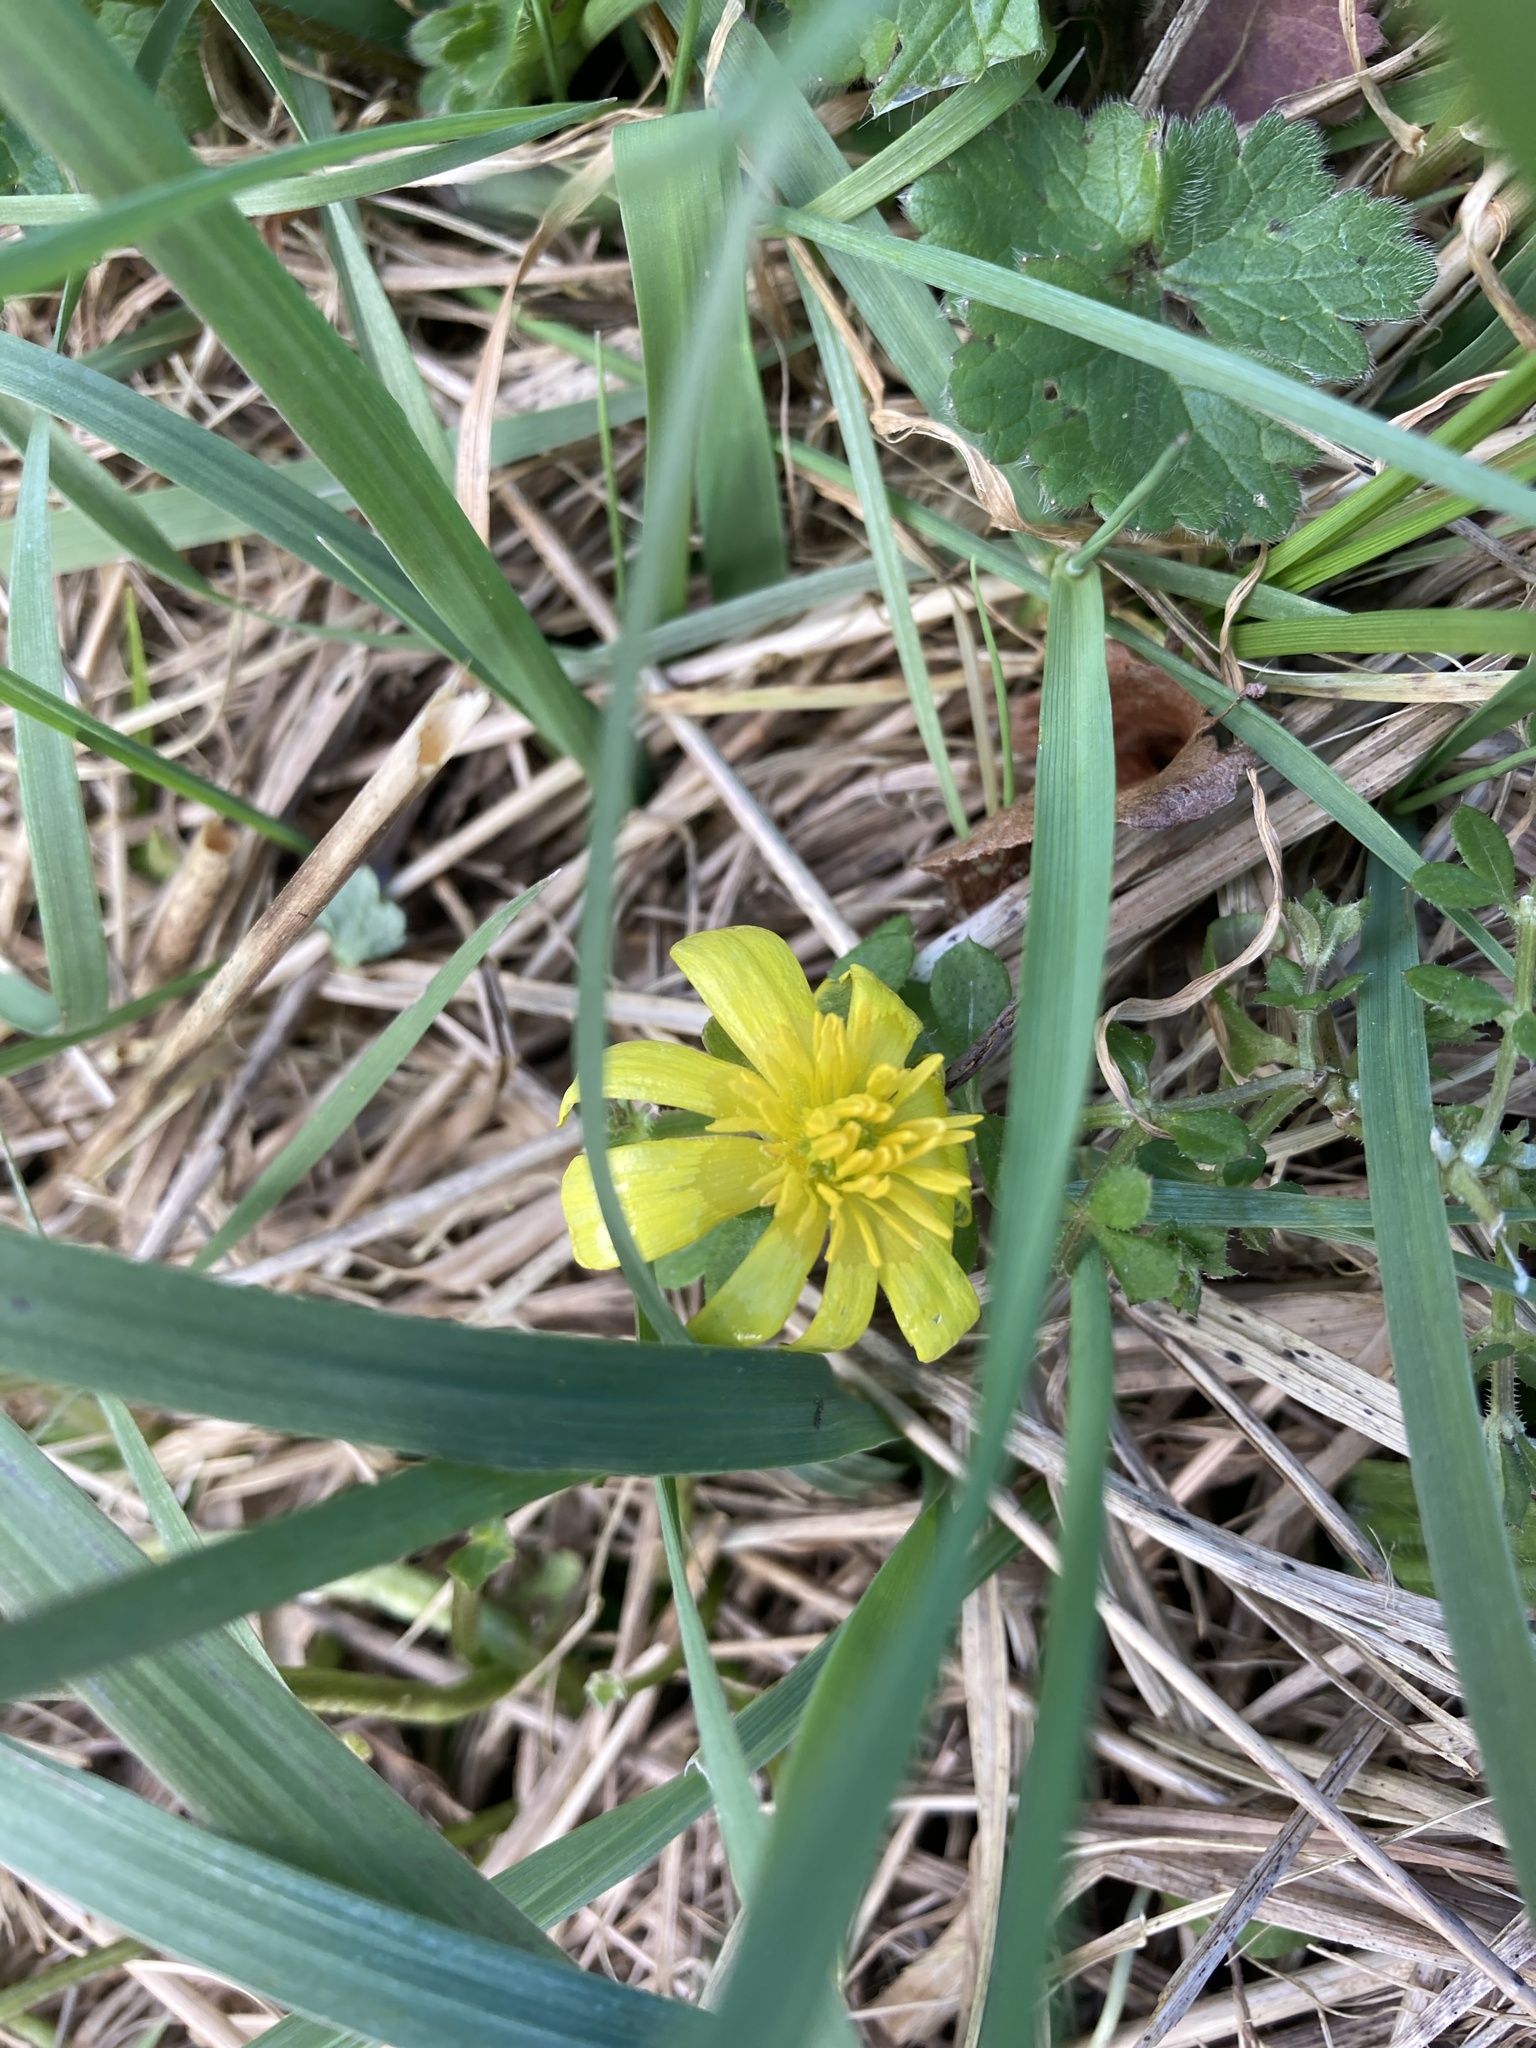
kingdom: Plantae
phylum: Tracheophyta
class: Magnoliopsida
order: Ranunculales
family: Ranunculaceae
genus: Ficaria
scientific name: Ficaria verna
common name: Lesser celandine
